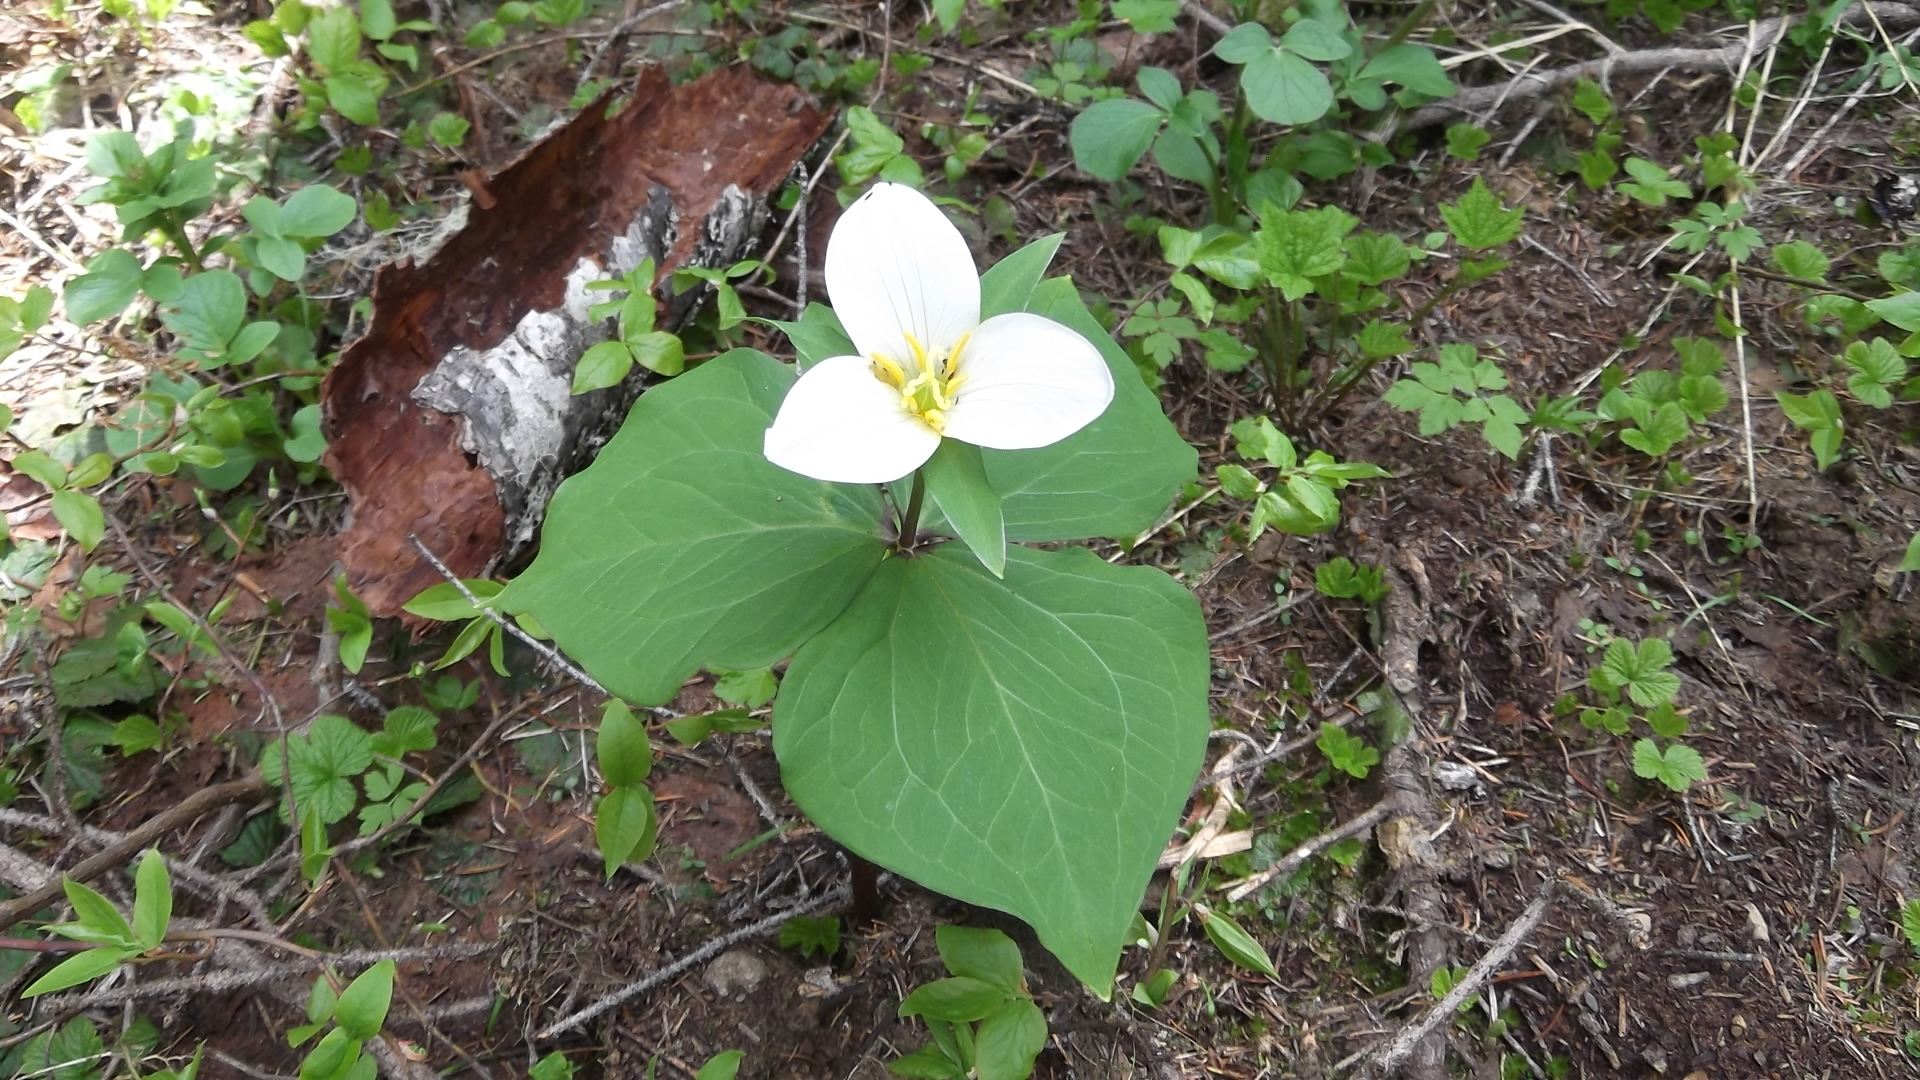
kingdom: Plantae
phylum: Tracheophyta
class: Liliopsida
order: Liliales
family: Melanthiaceae
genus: Trillium
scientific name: Trillium ovatum
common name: Pacific trillium
